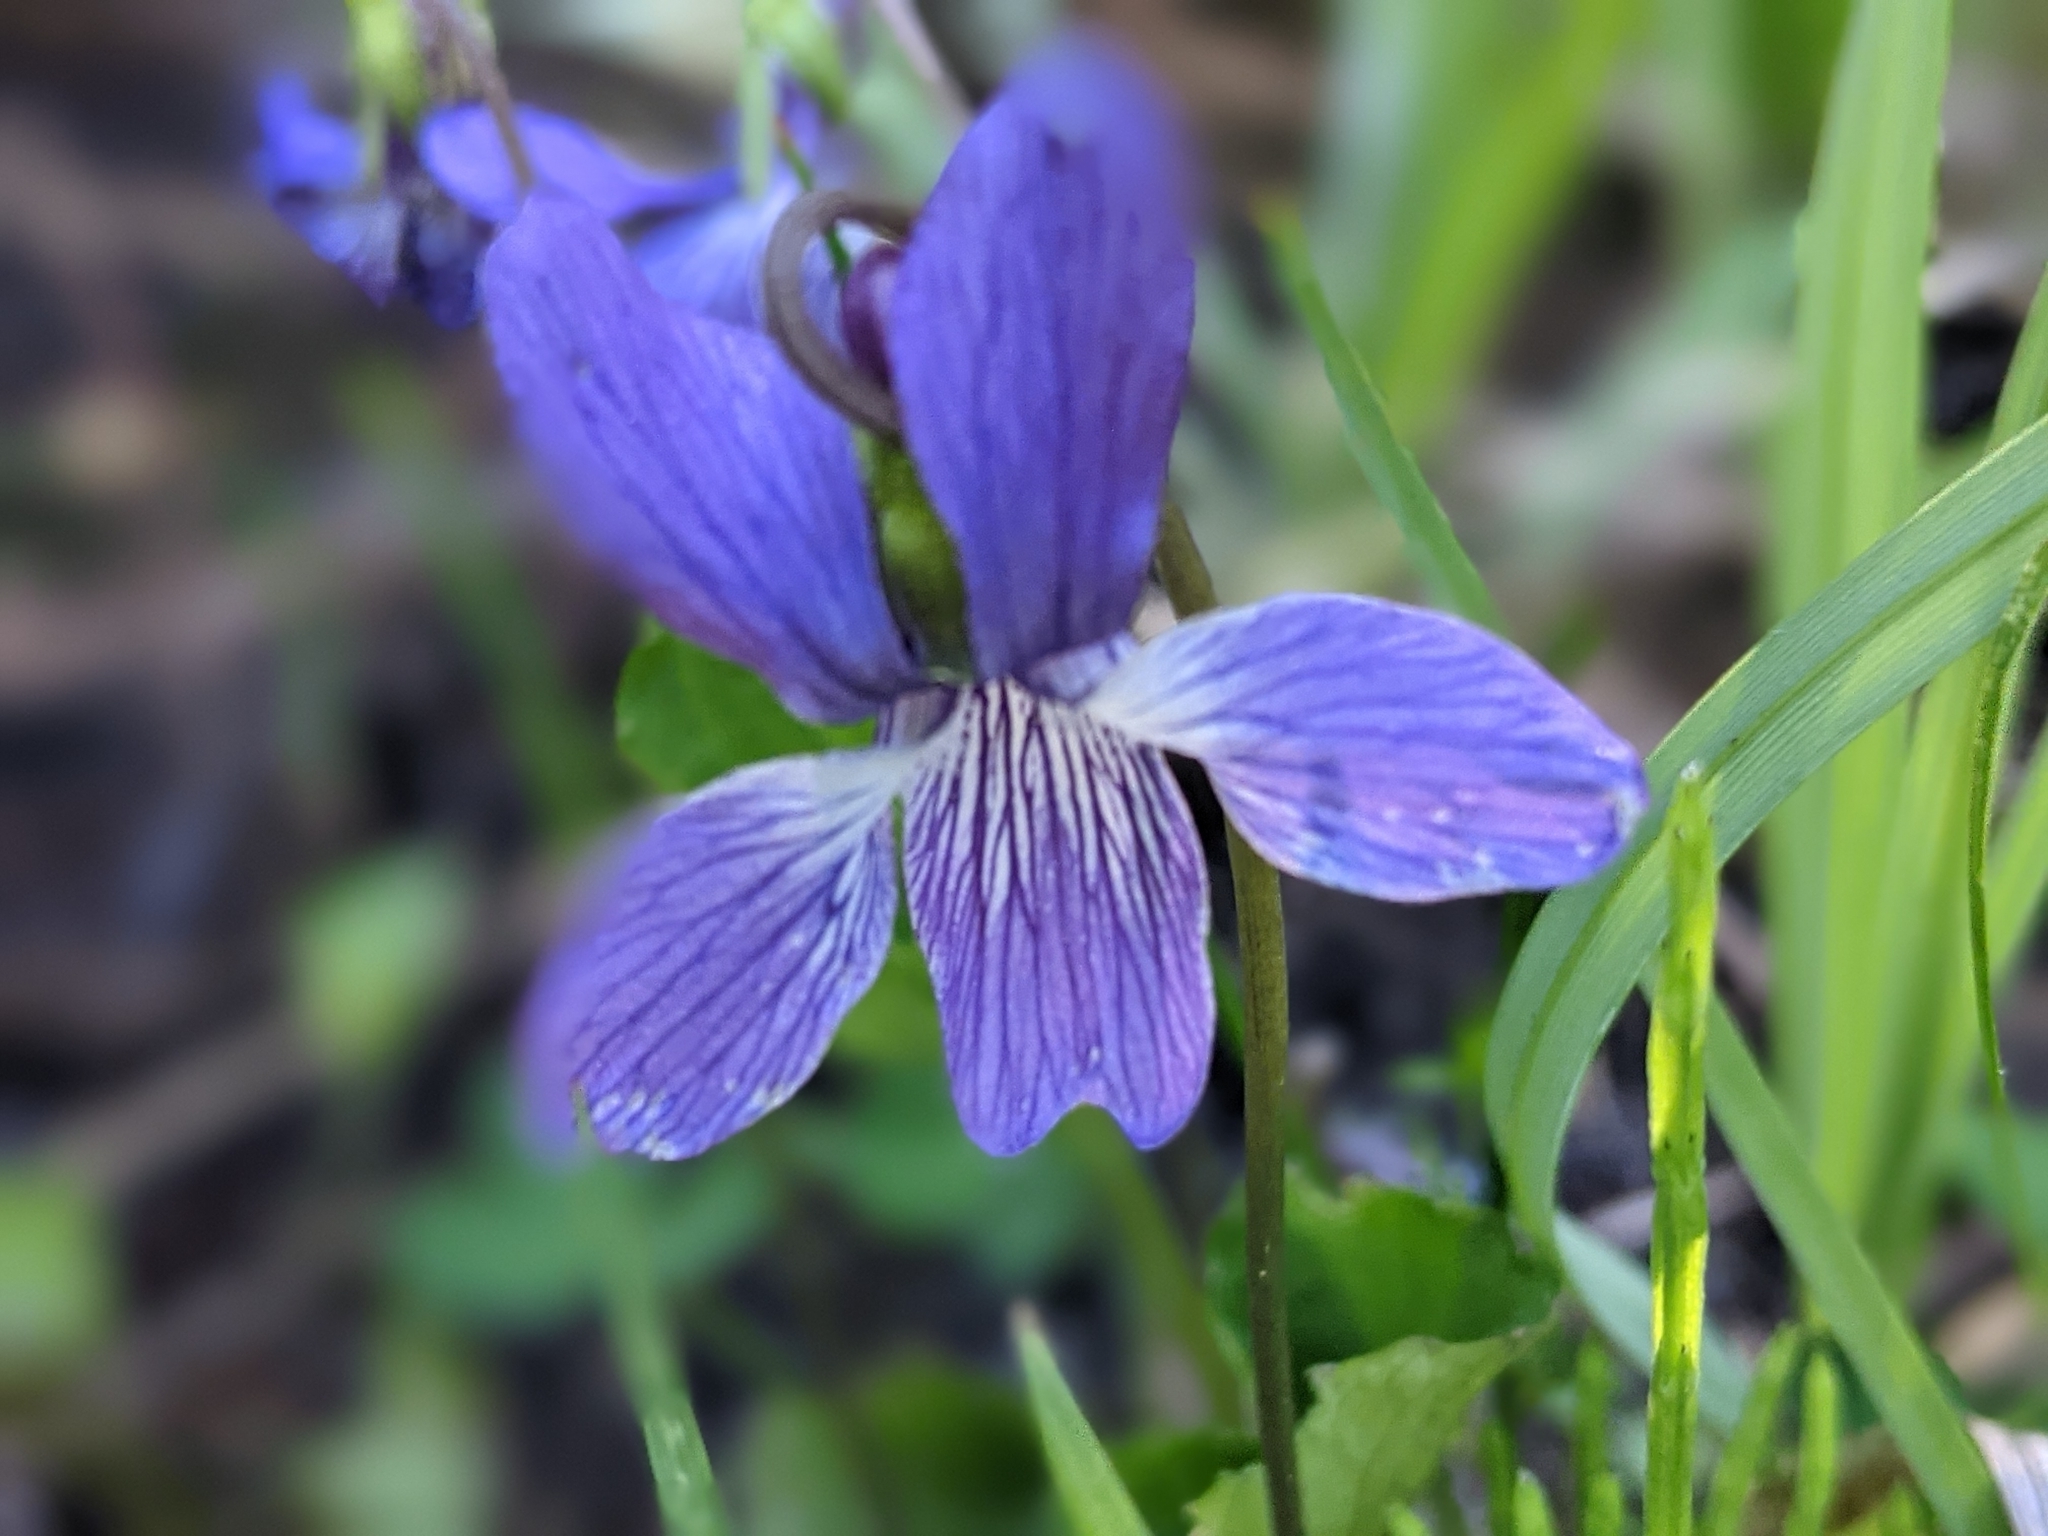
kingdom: Plantae
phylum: Tracheophyta
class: Magnoliopsida
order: Malpighiales
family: Violaceae
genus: Viola
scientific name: Viola nephrophylla
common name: Blue meadow violet
